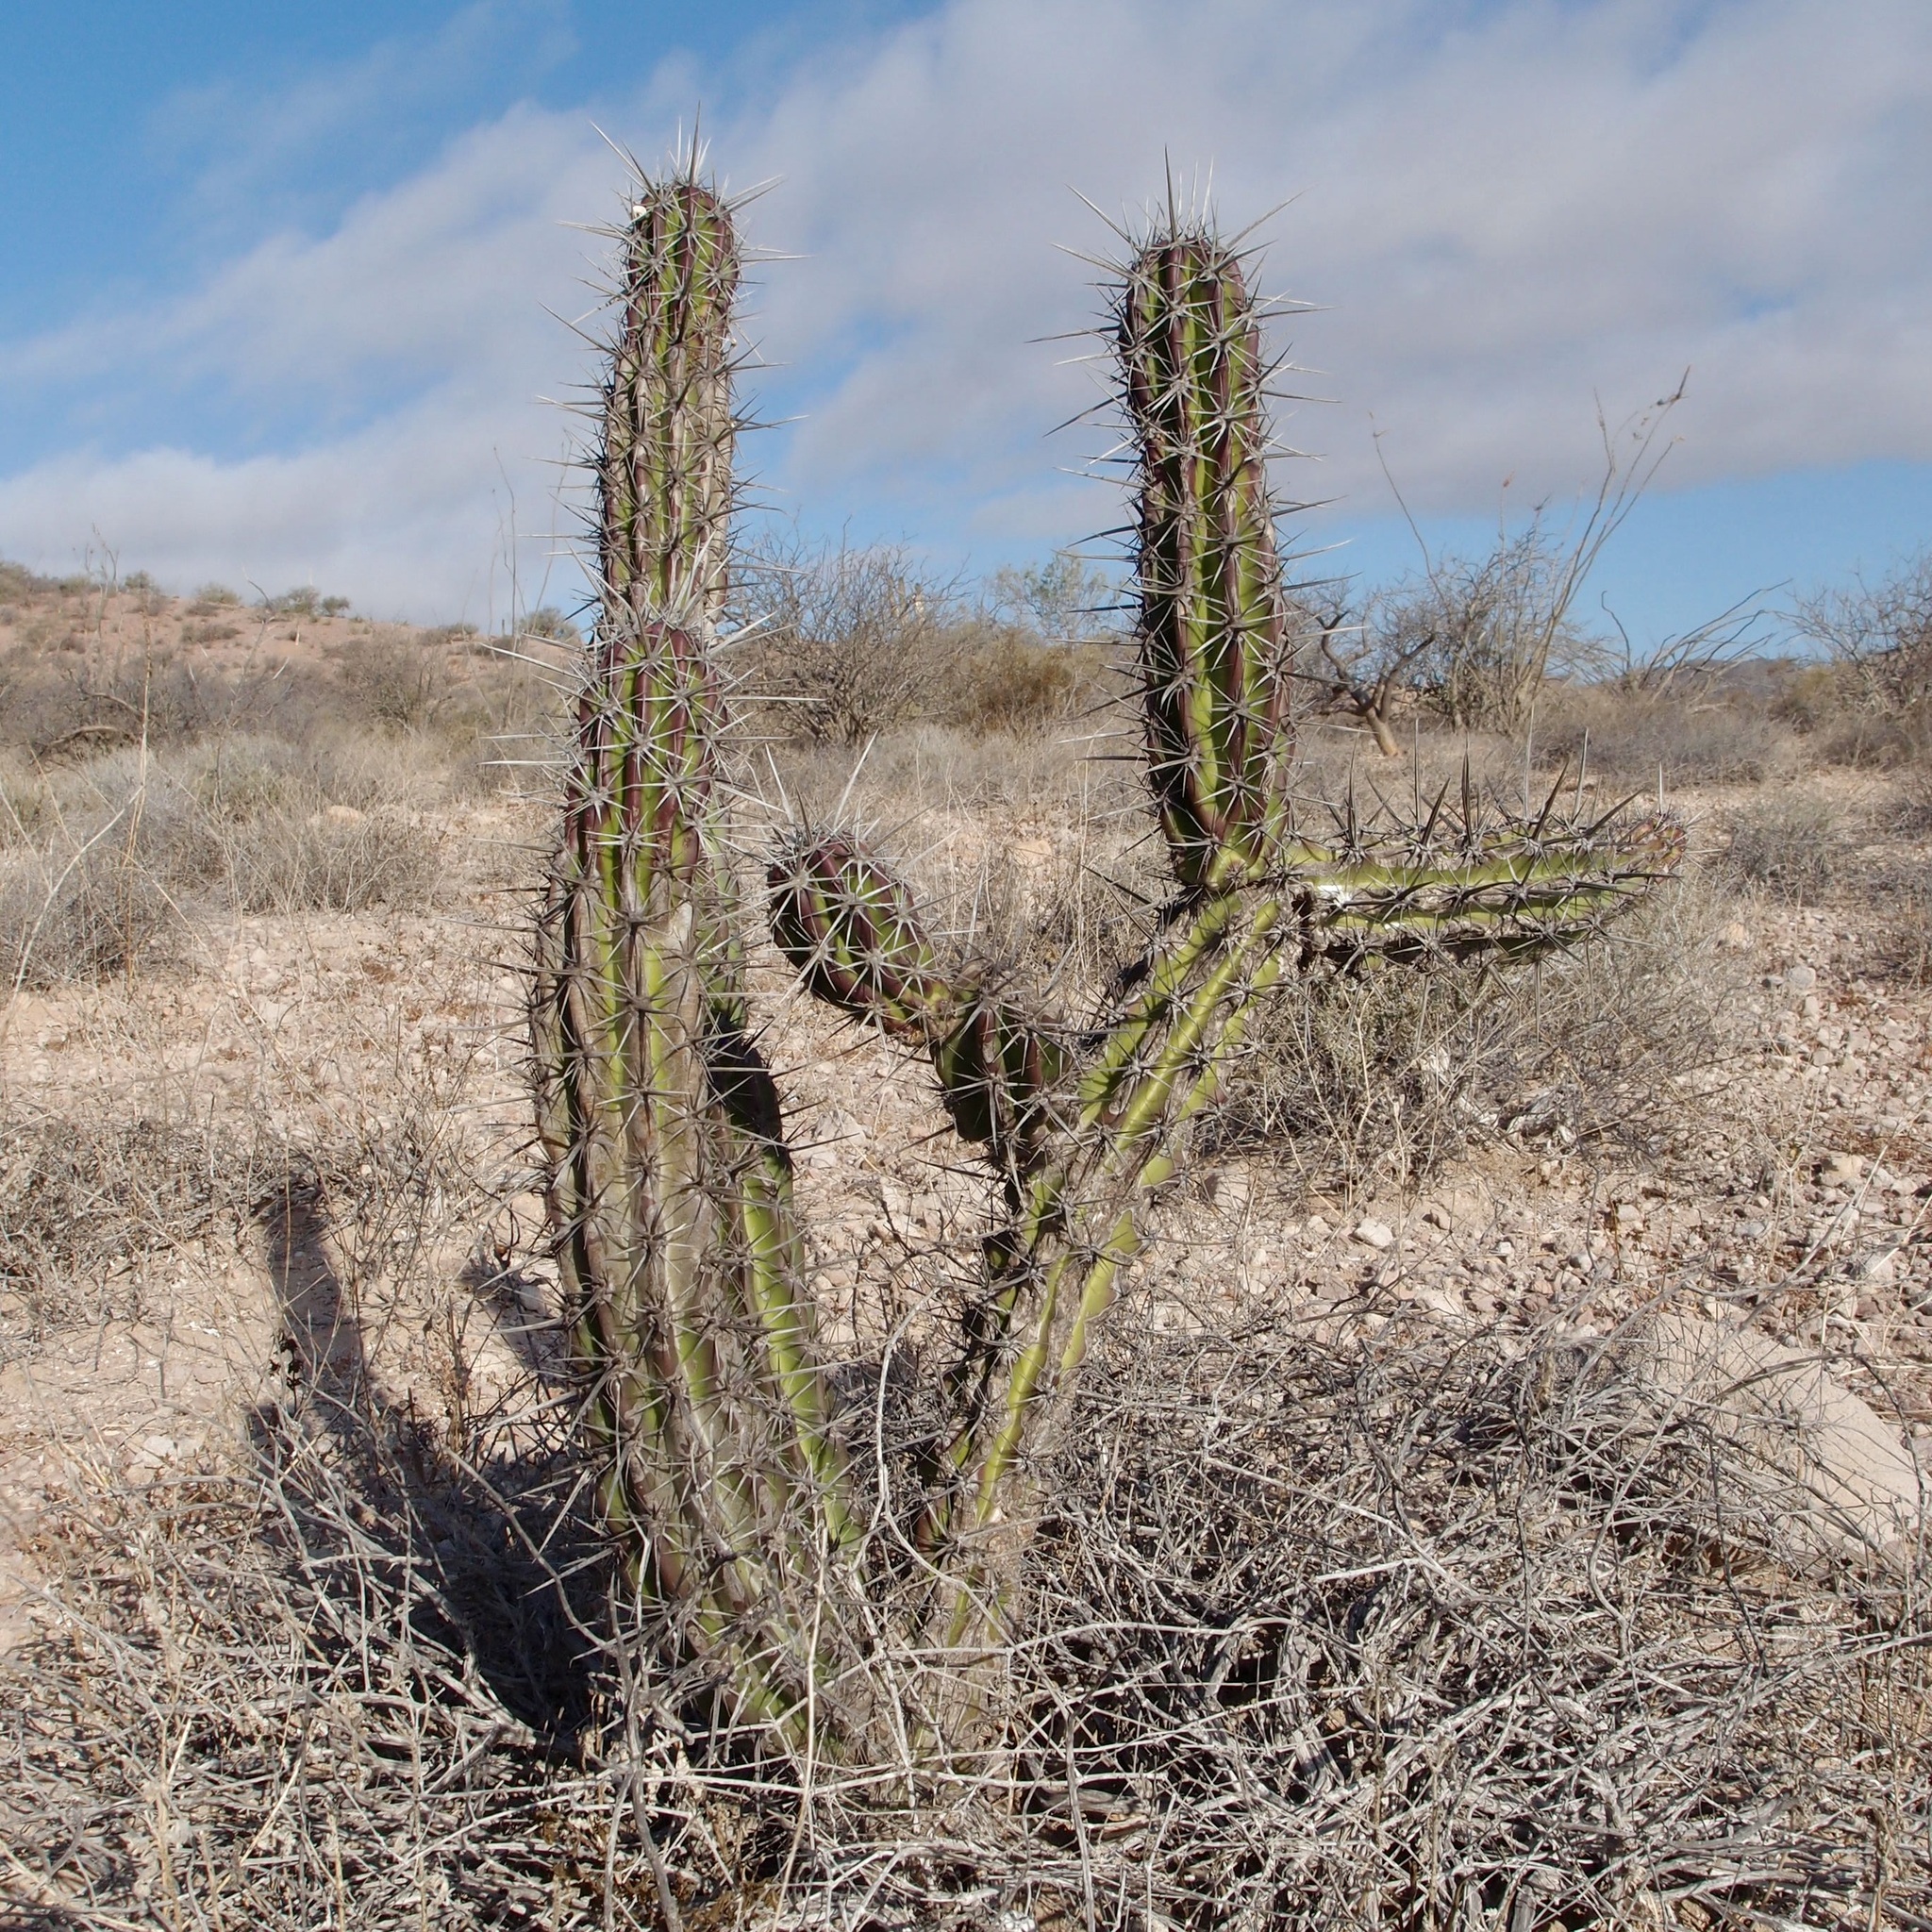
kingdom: Plantae
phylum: Tracheophyta
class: Magnoliopsida
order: Caryophyllales
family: Cactaceae
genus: Stenocereus
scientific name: Stenocereus gummosus
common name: Dagger cactus
